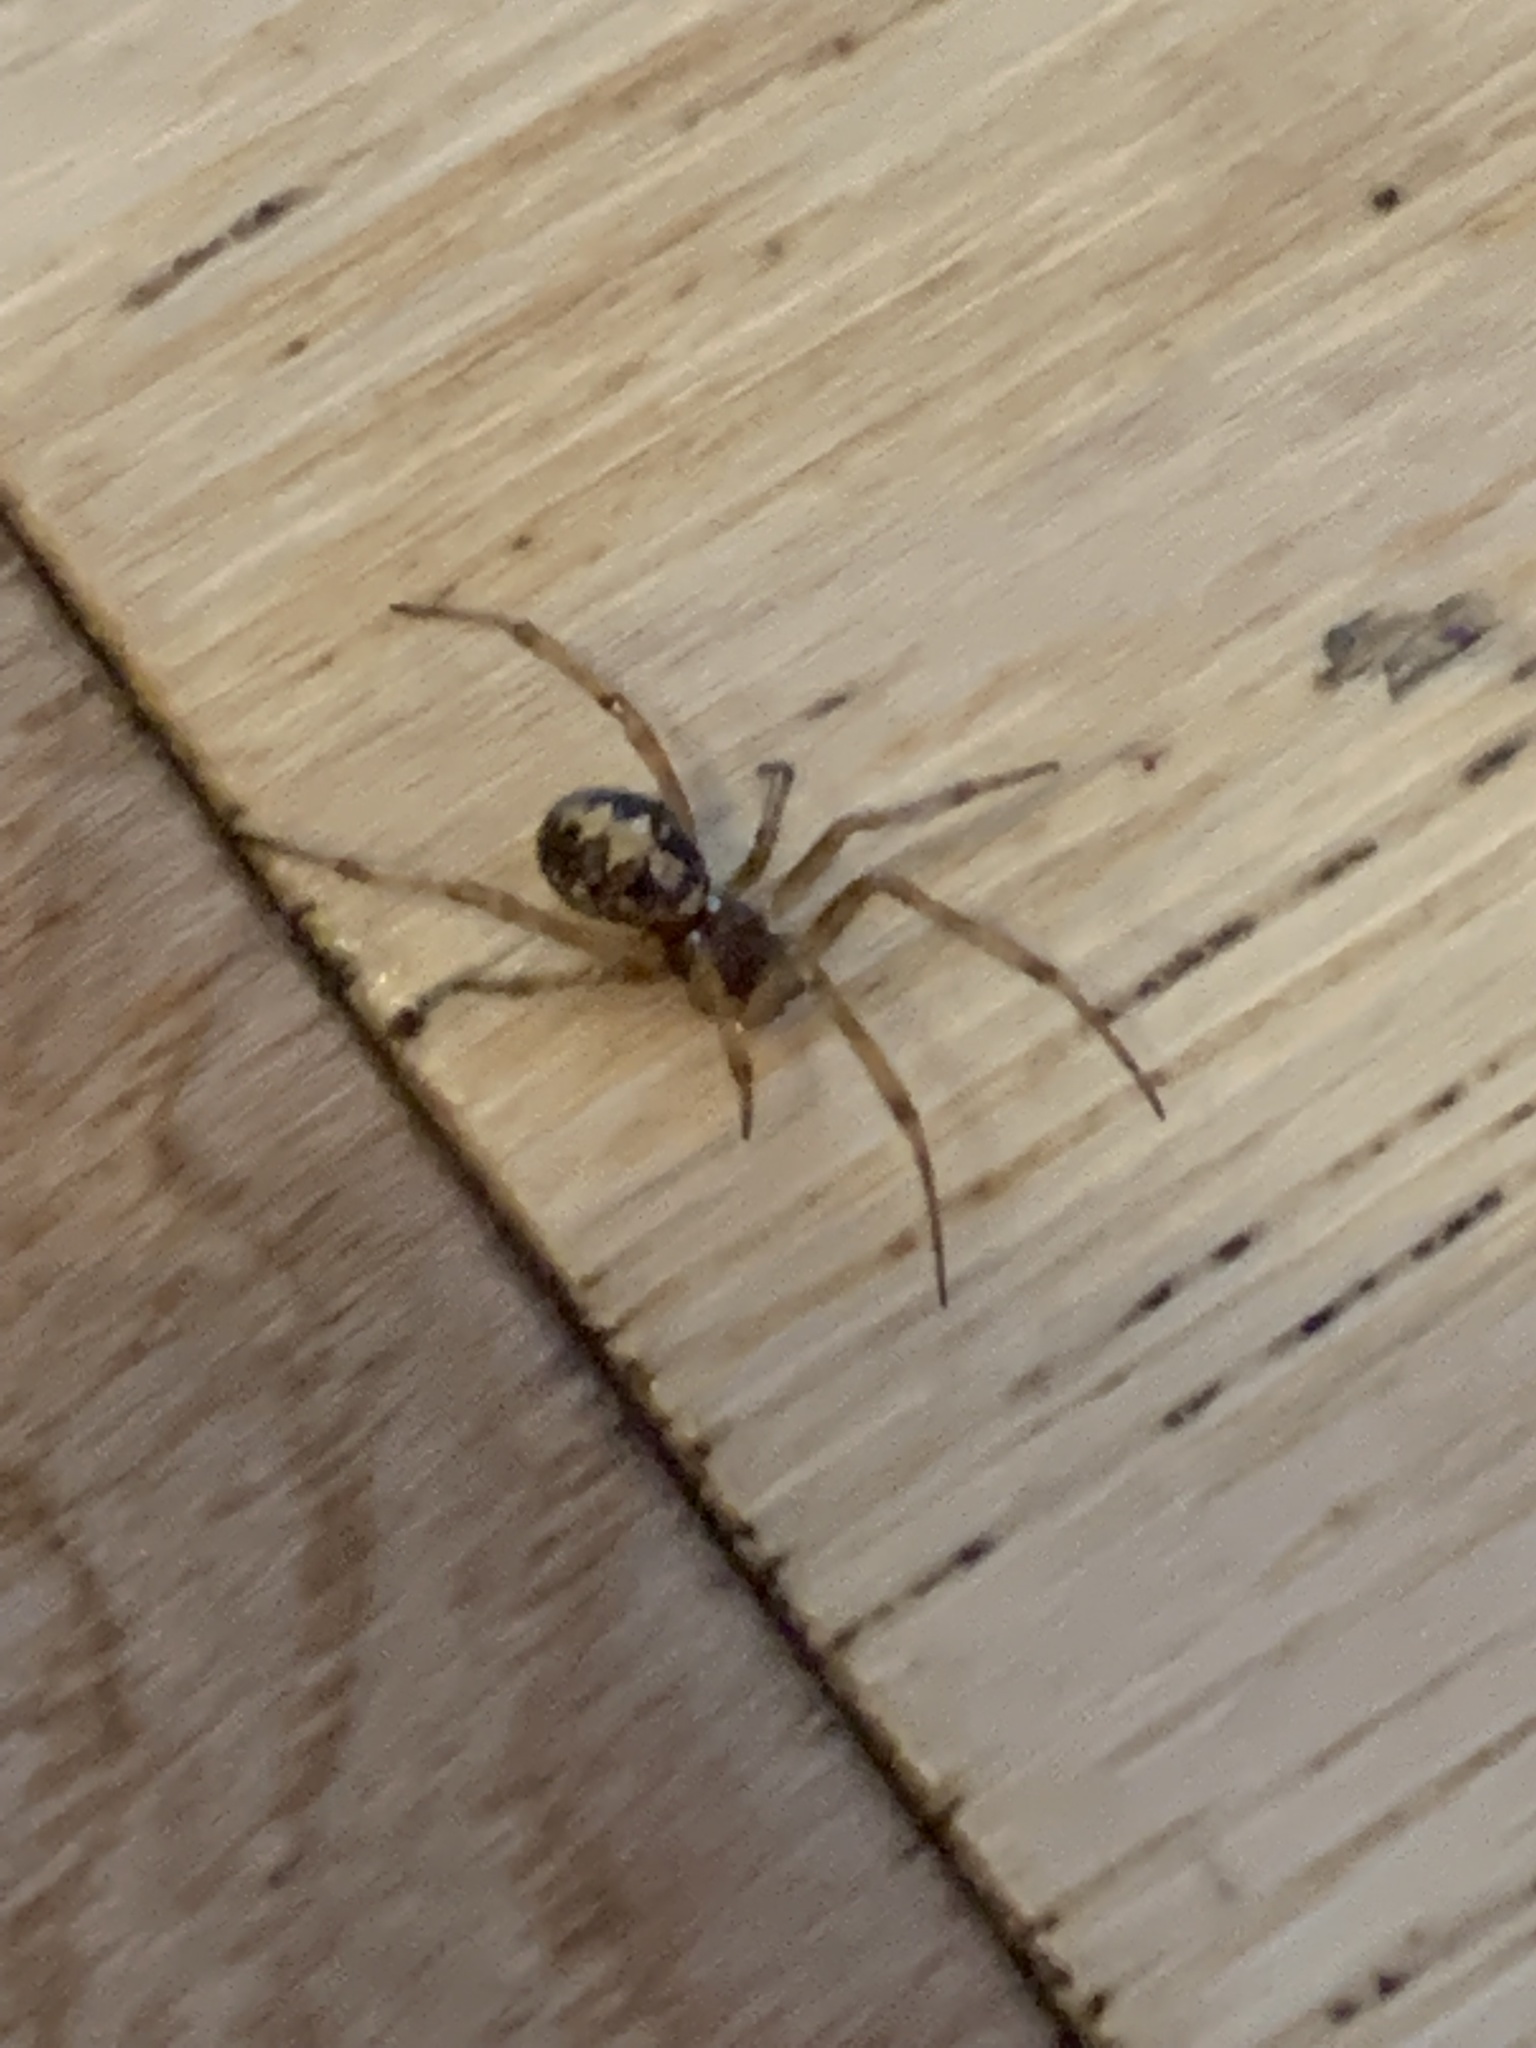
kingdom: Animalia
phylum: Arthropoda
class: Arachnida
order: Araneae
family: Theridiidae
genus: Steatoda
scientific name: Steatoda triangulosa
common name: Triangulate bud spider
